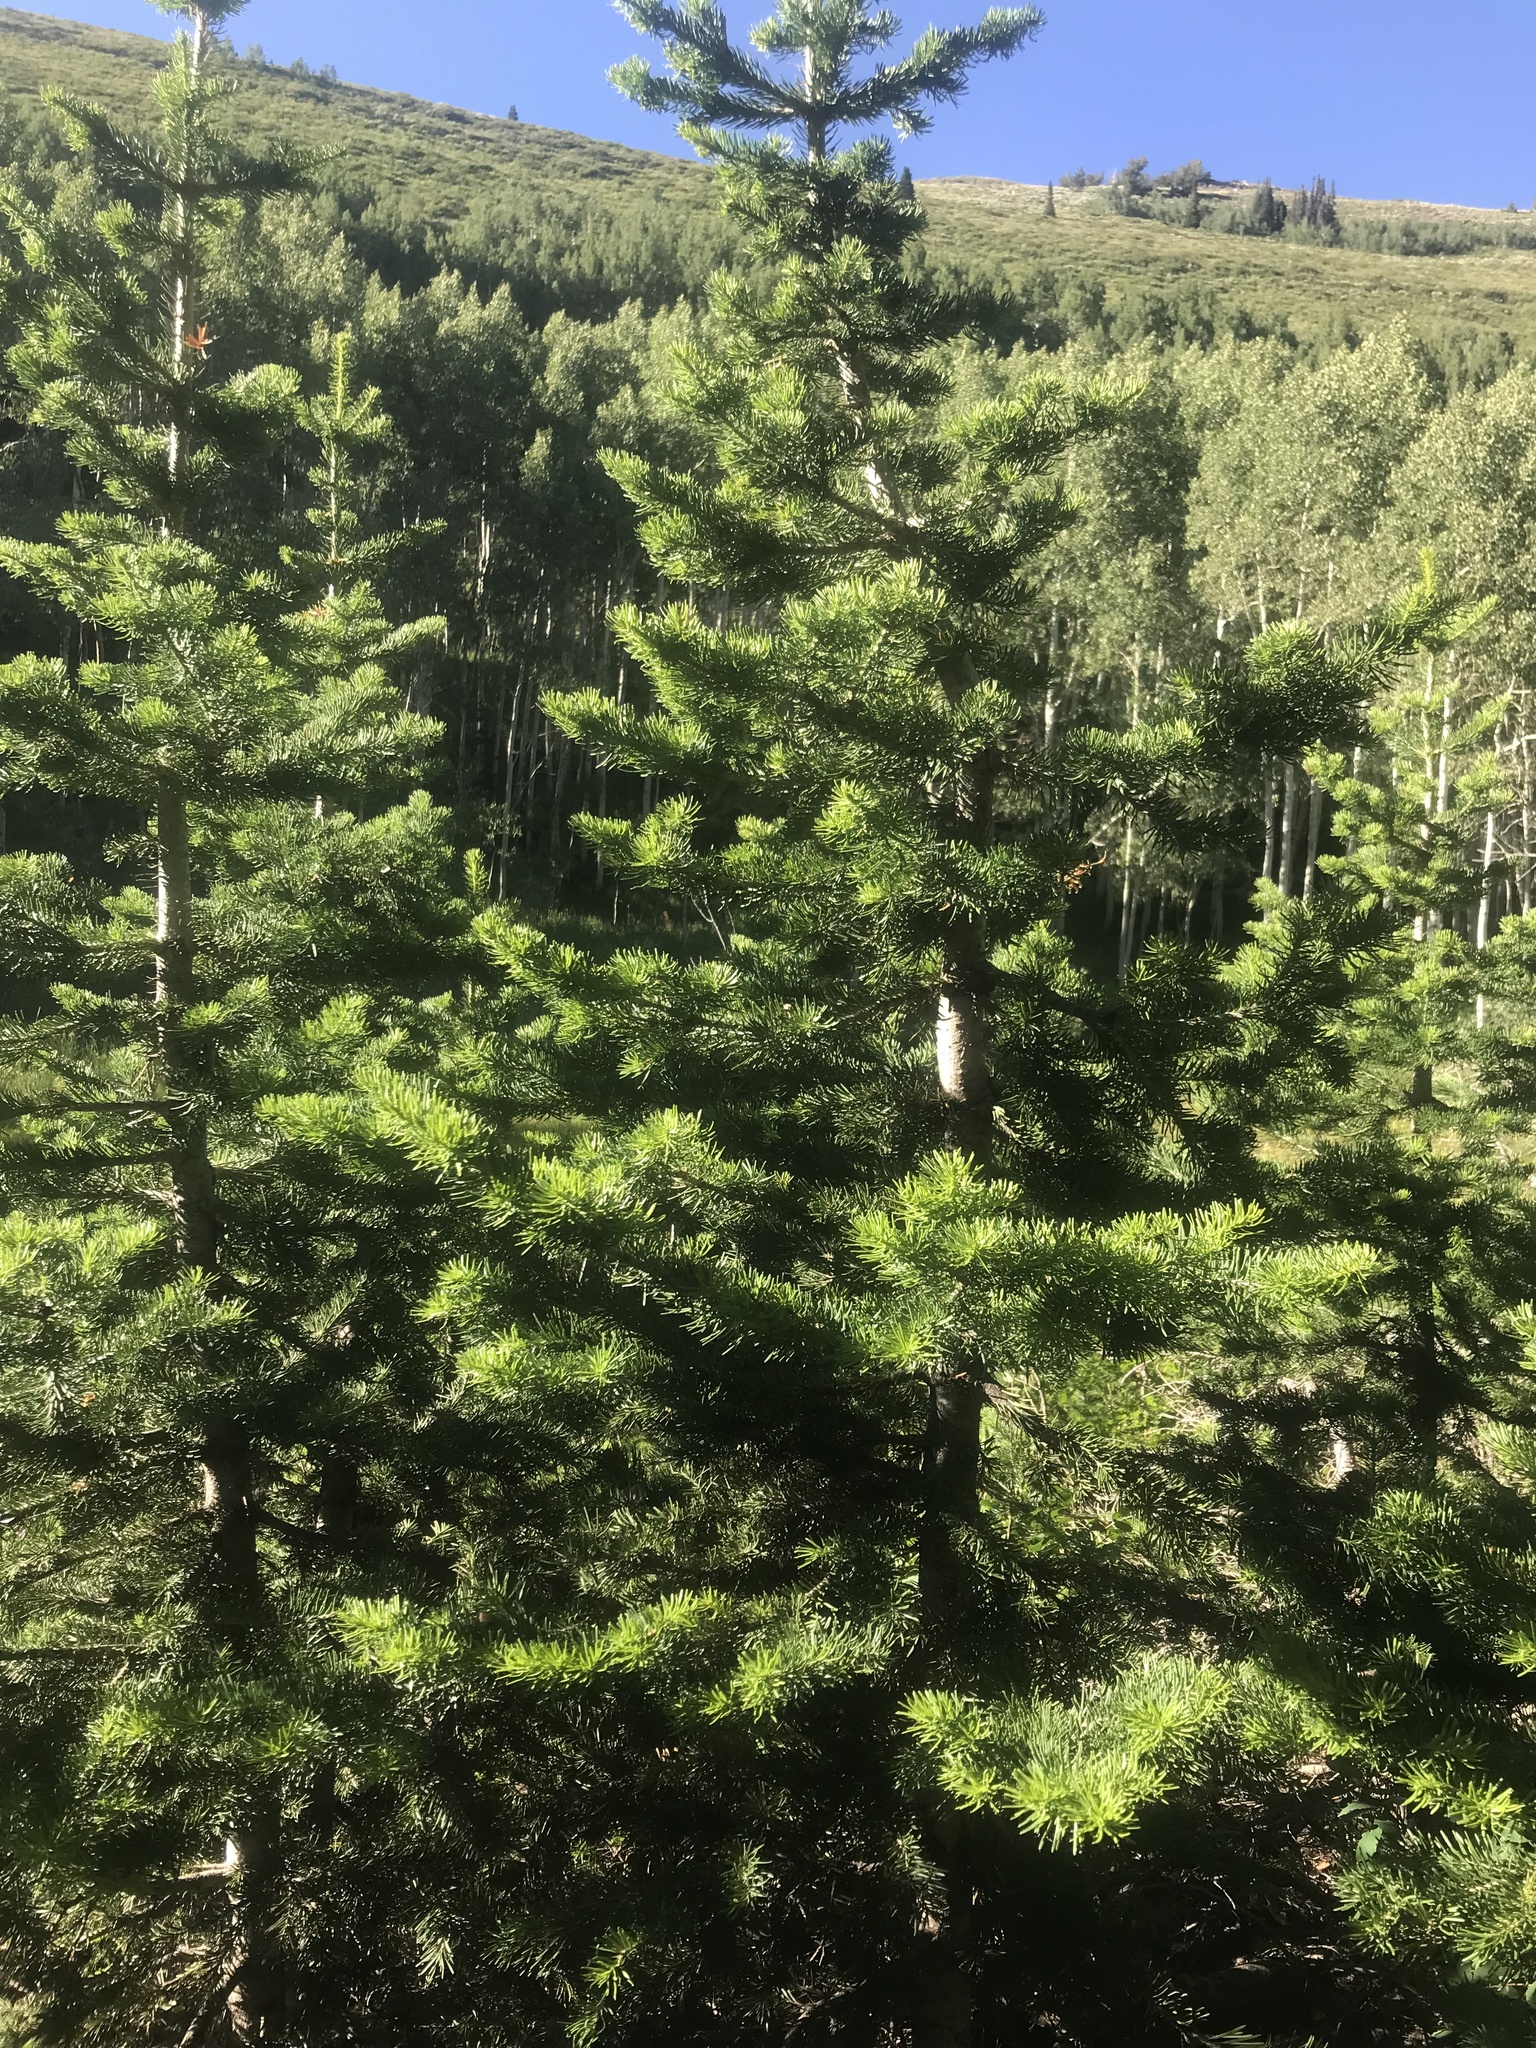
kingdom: Plantae
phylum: Tracheophyta
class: Pinopsida
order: Pinales
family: Pinaceae
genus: Abies
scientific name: Abies lasiocarpa
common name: Subalpine fir
